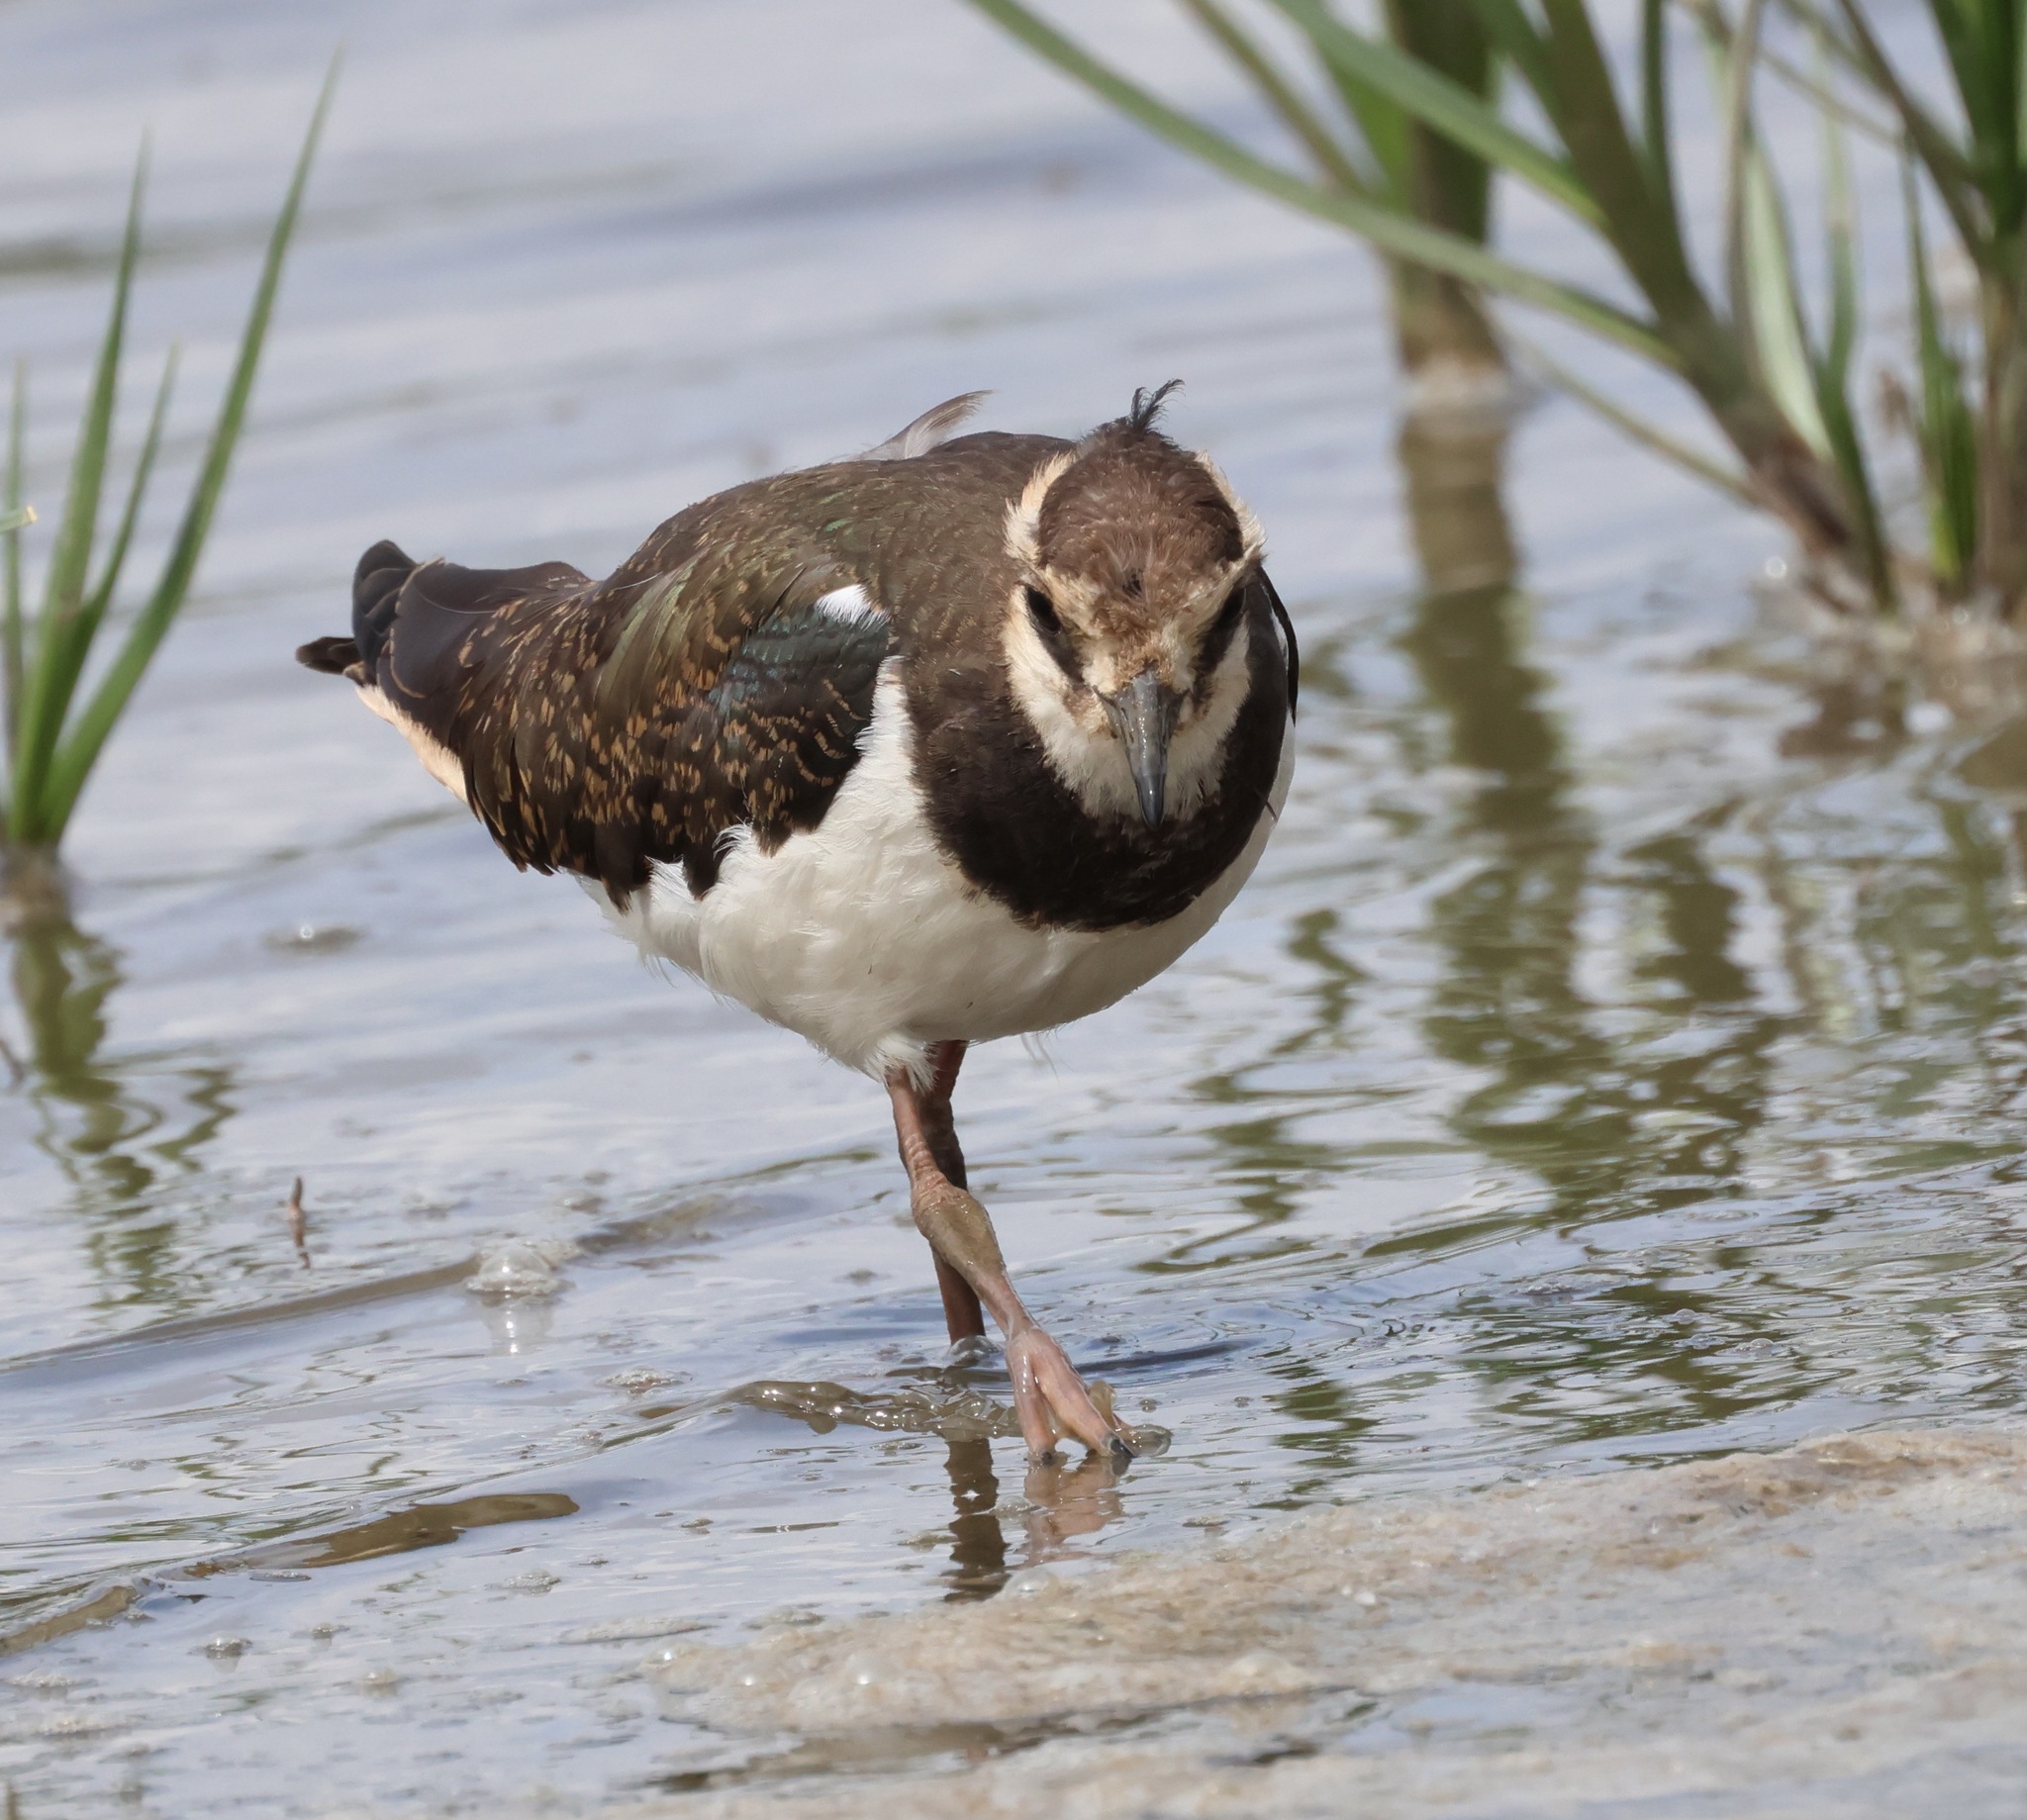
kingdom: Animalia
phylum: Chordata
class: Aves
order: Charadriiformes
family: Charadriidae
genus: Vanellus
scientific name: Vanellus vanellus
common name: Northern lapwing
